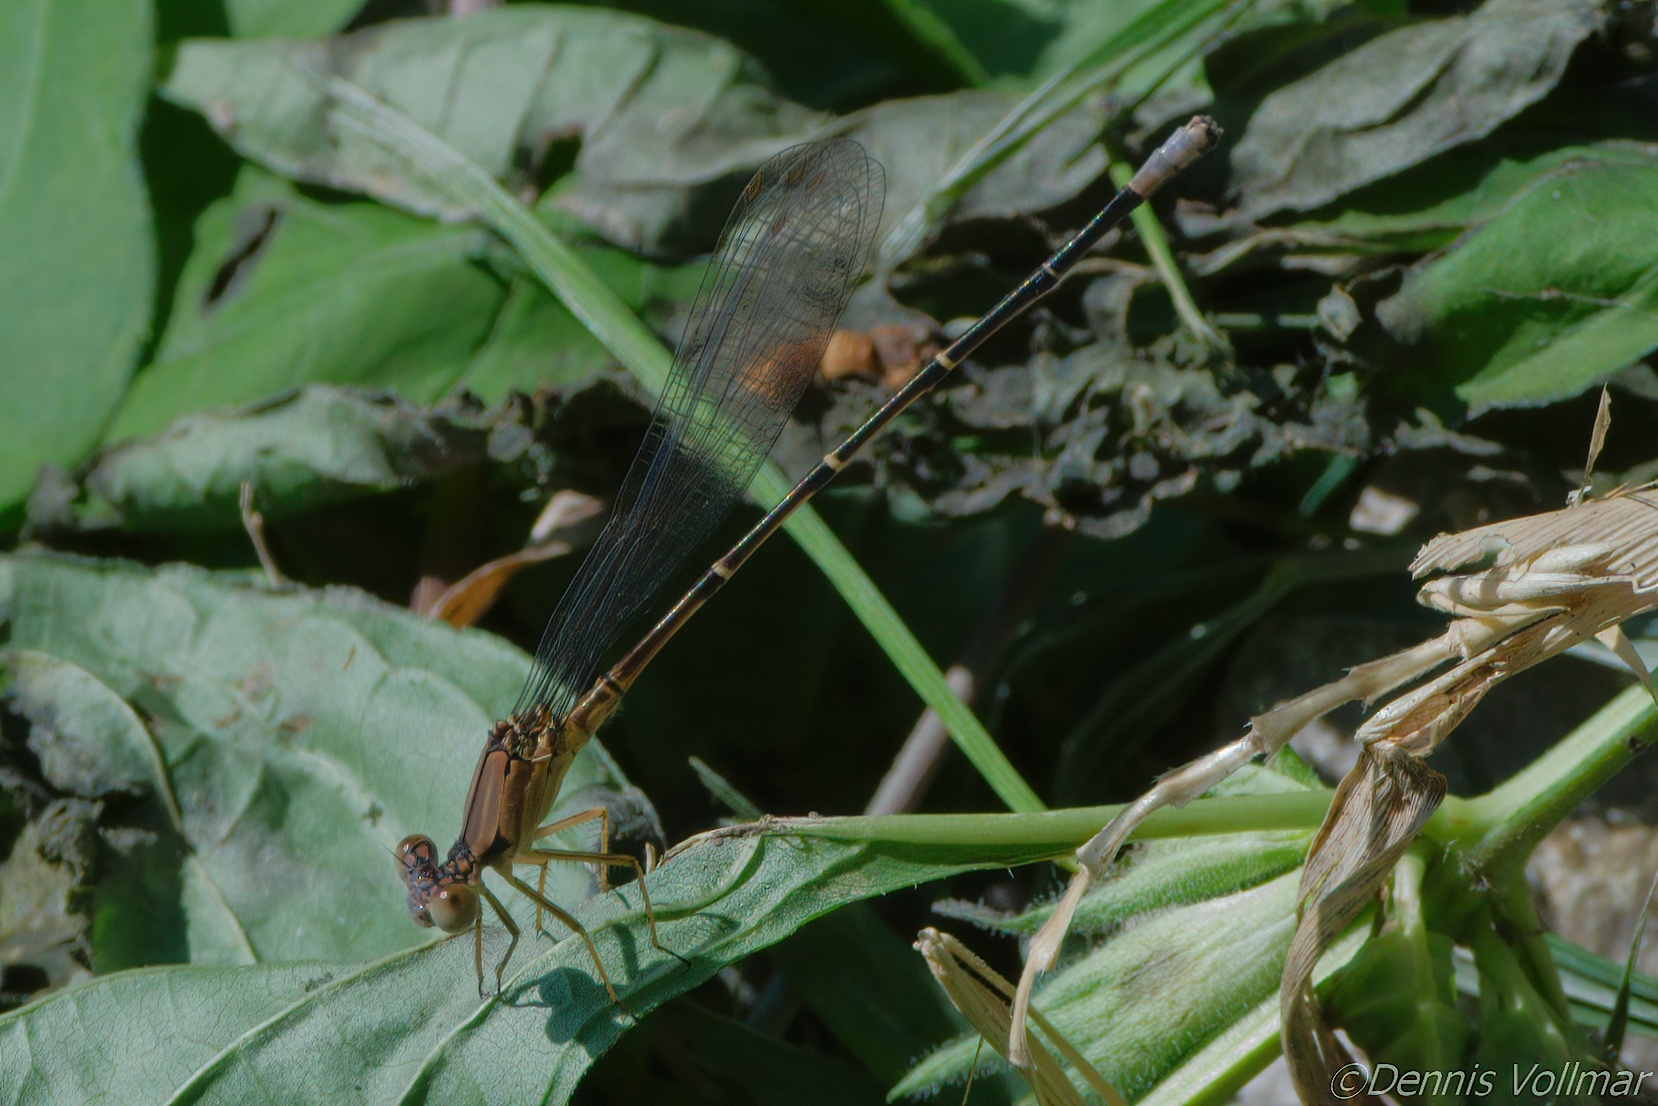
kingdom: Animalia
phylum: Arthropoda
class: Insecta
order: Odonata
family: Coenagrionidae
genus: Argia
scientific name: Argia apicalis
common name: Blue-fronted dancer
